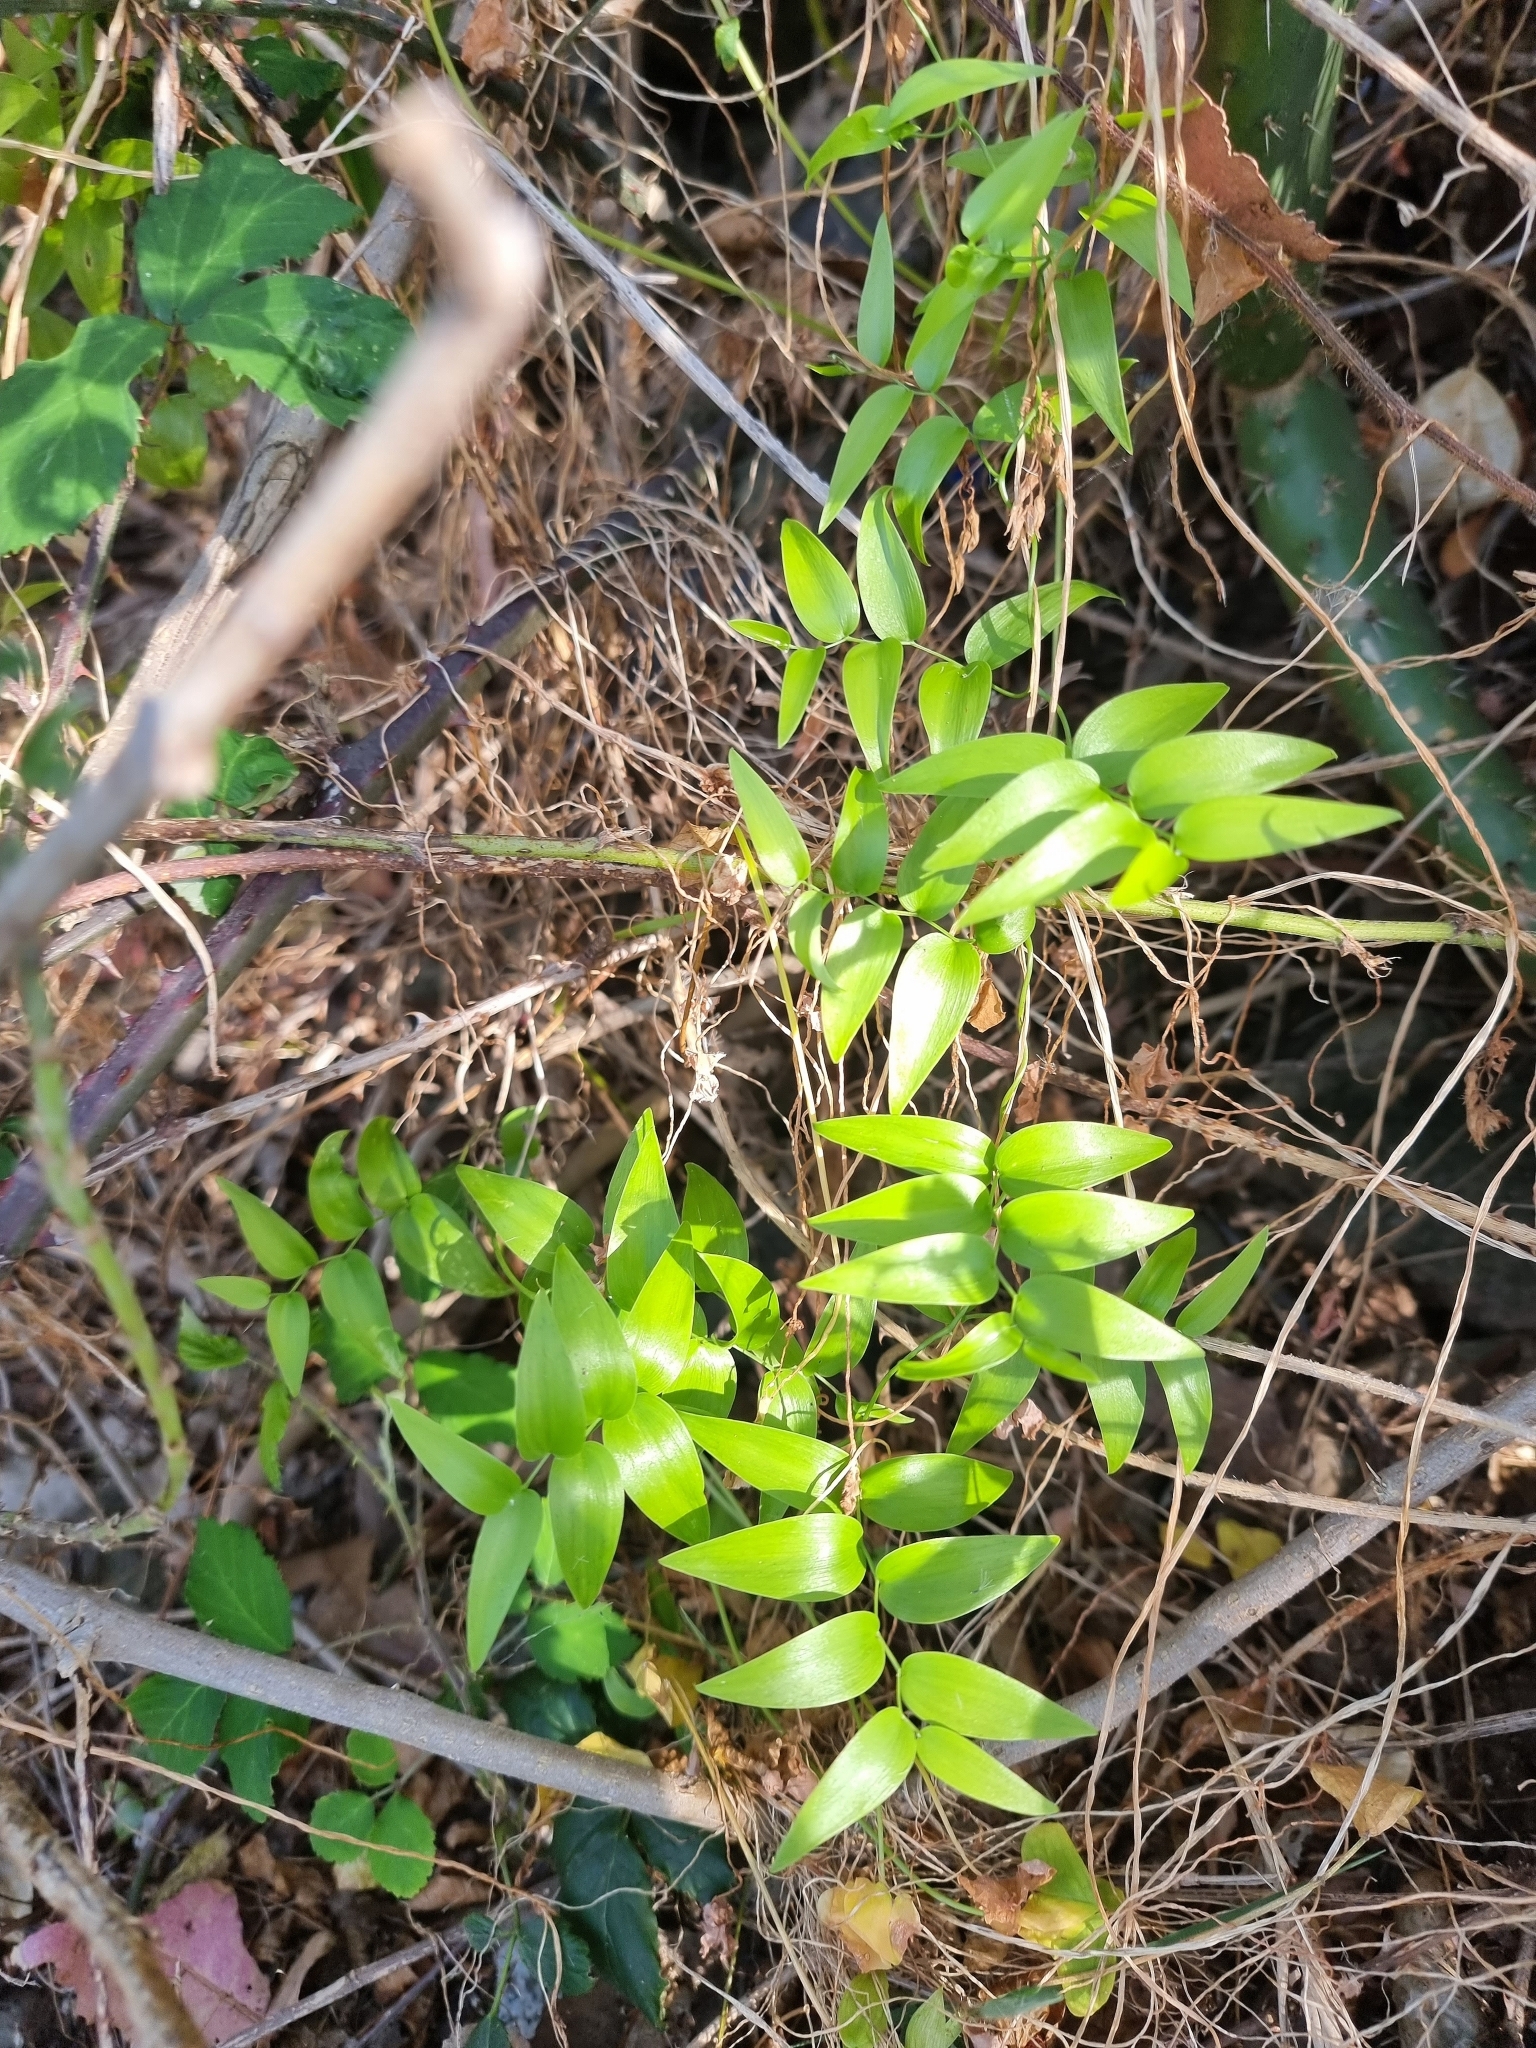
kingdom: Plantae
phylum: Tracheophyta
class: Liliopsida
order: Asparagales
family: Asparagaceae
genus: Asparagus
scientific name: Asparagus asparagoides
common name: African asparagus fern
